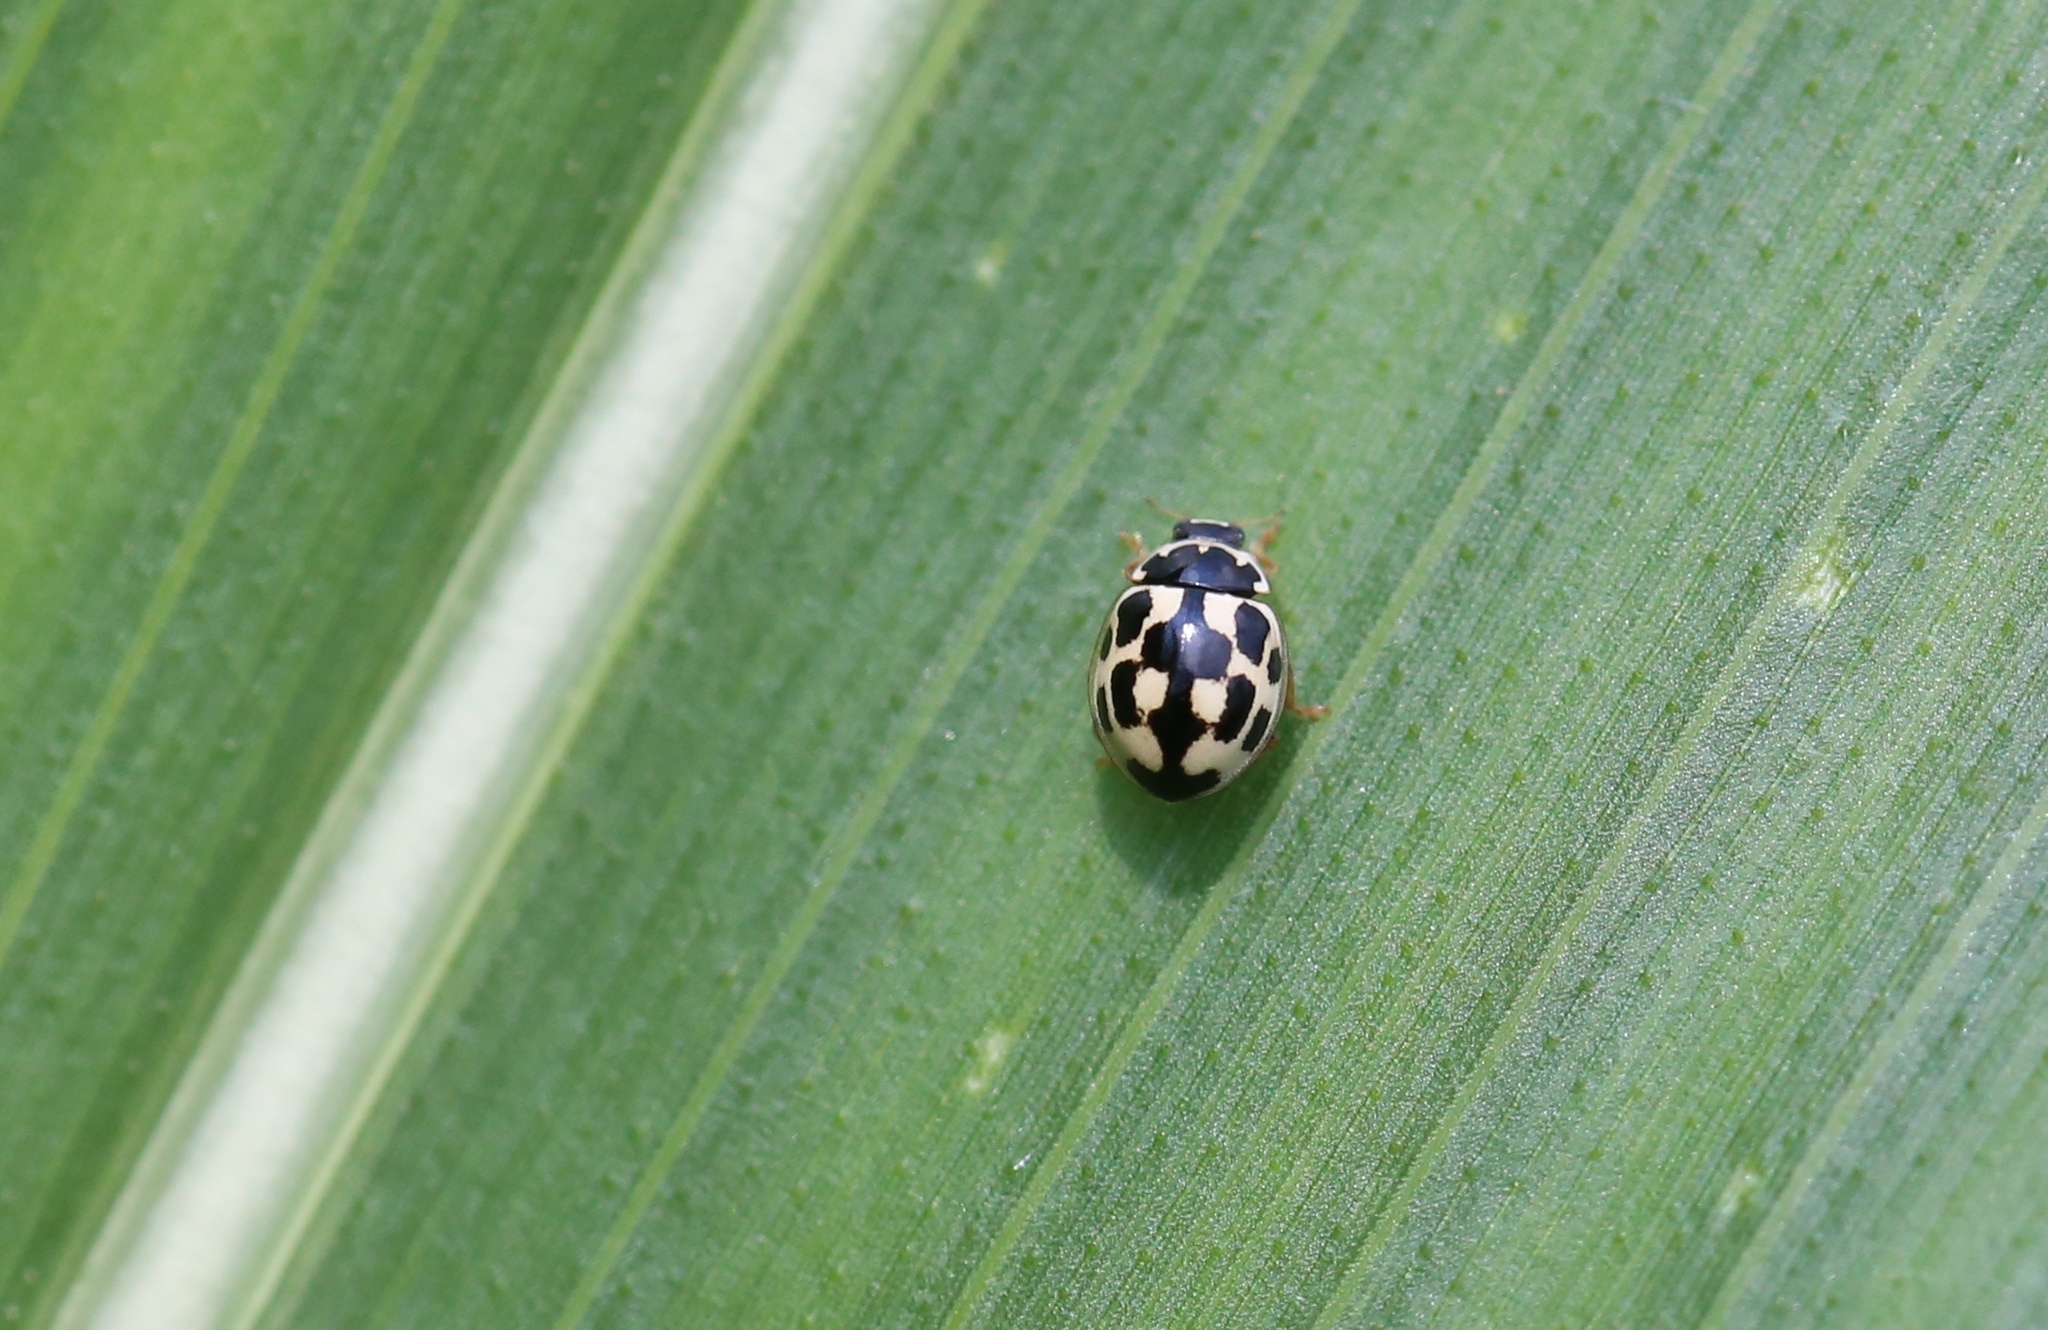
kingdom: Animalia
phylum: Arthropoda
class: Insecta
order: Coleoptera
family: Coccinellidae
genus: Propylaea
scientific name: Propylaea quatuordecimpunctata
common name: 14-spotted ladybird beetle
